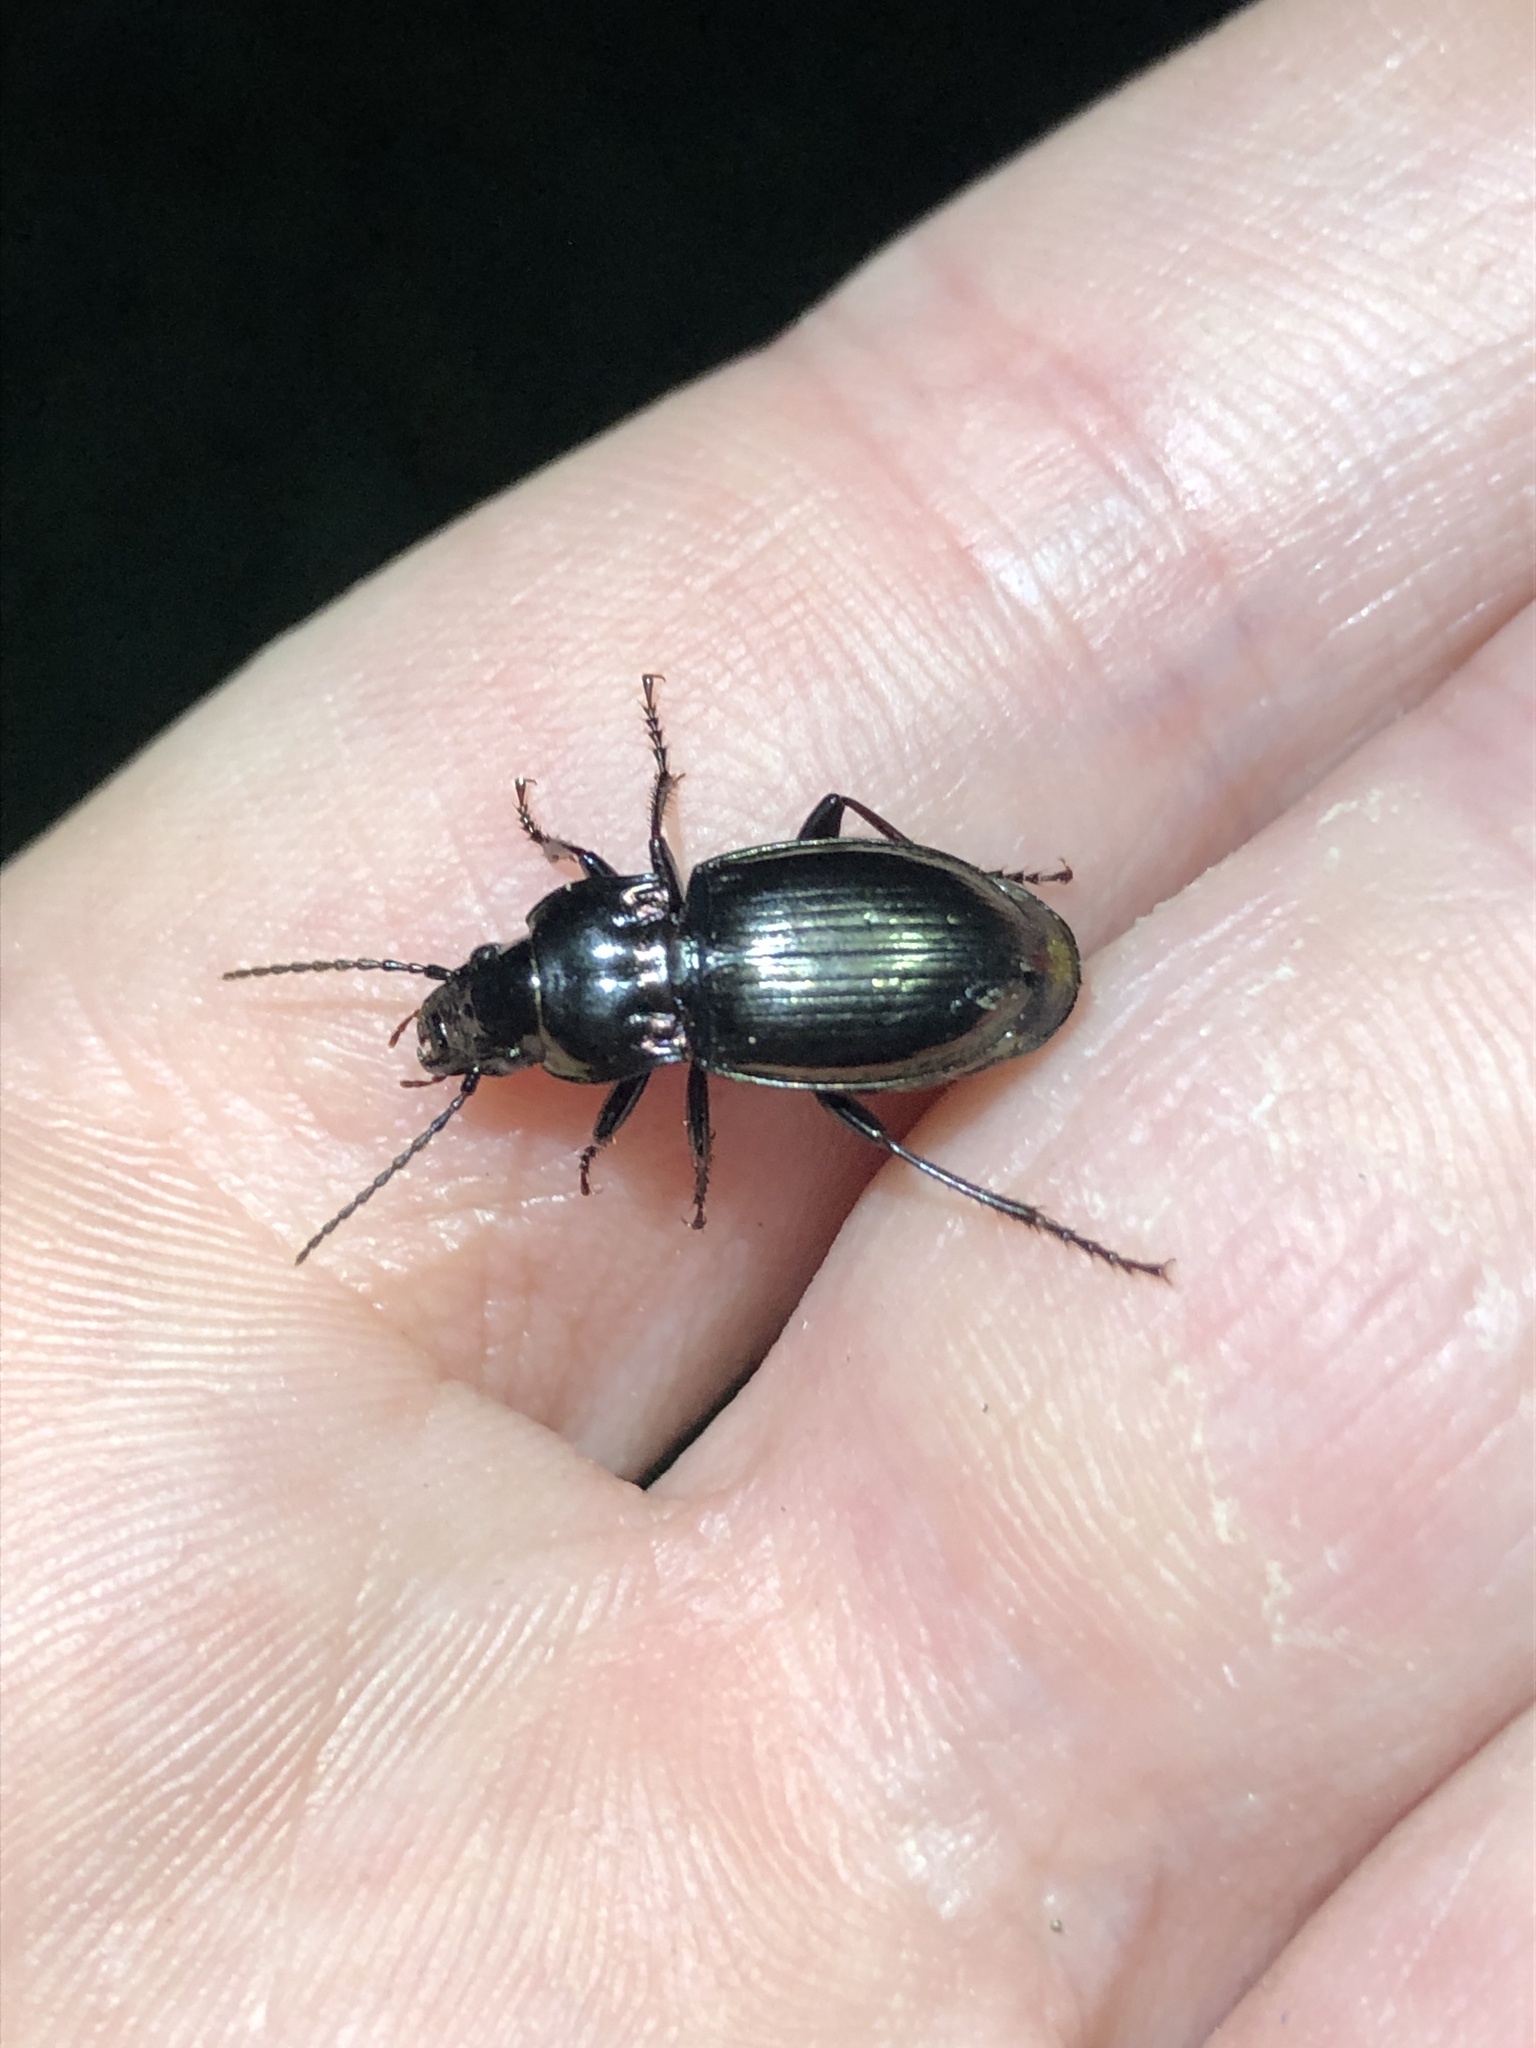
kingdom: Animalia
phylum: Arthropoda
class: Insecta
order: Coleoptera
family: Carabidae
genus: Pterostichus
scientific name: Pterostichus burmeisteri
